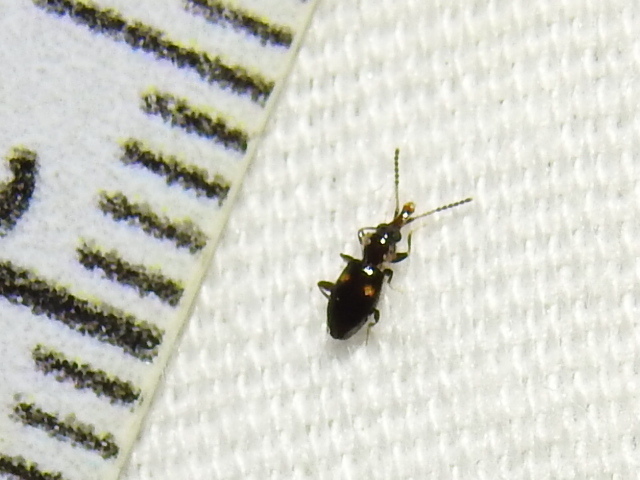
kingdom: Animalia
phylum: Arthropoda
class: Insecta
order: Coleoptera
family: Laemophloeidae
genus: Metaxyphloeus
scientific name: Metaxyphloeus texanus
